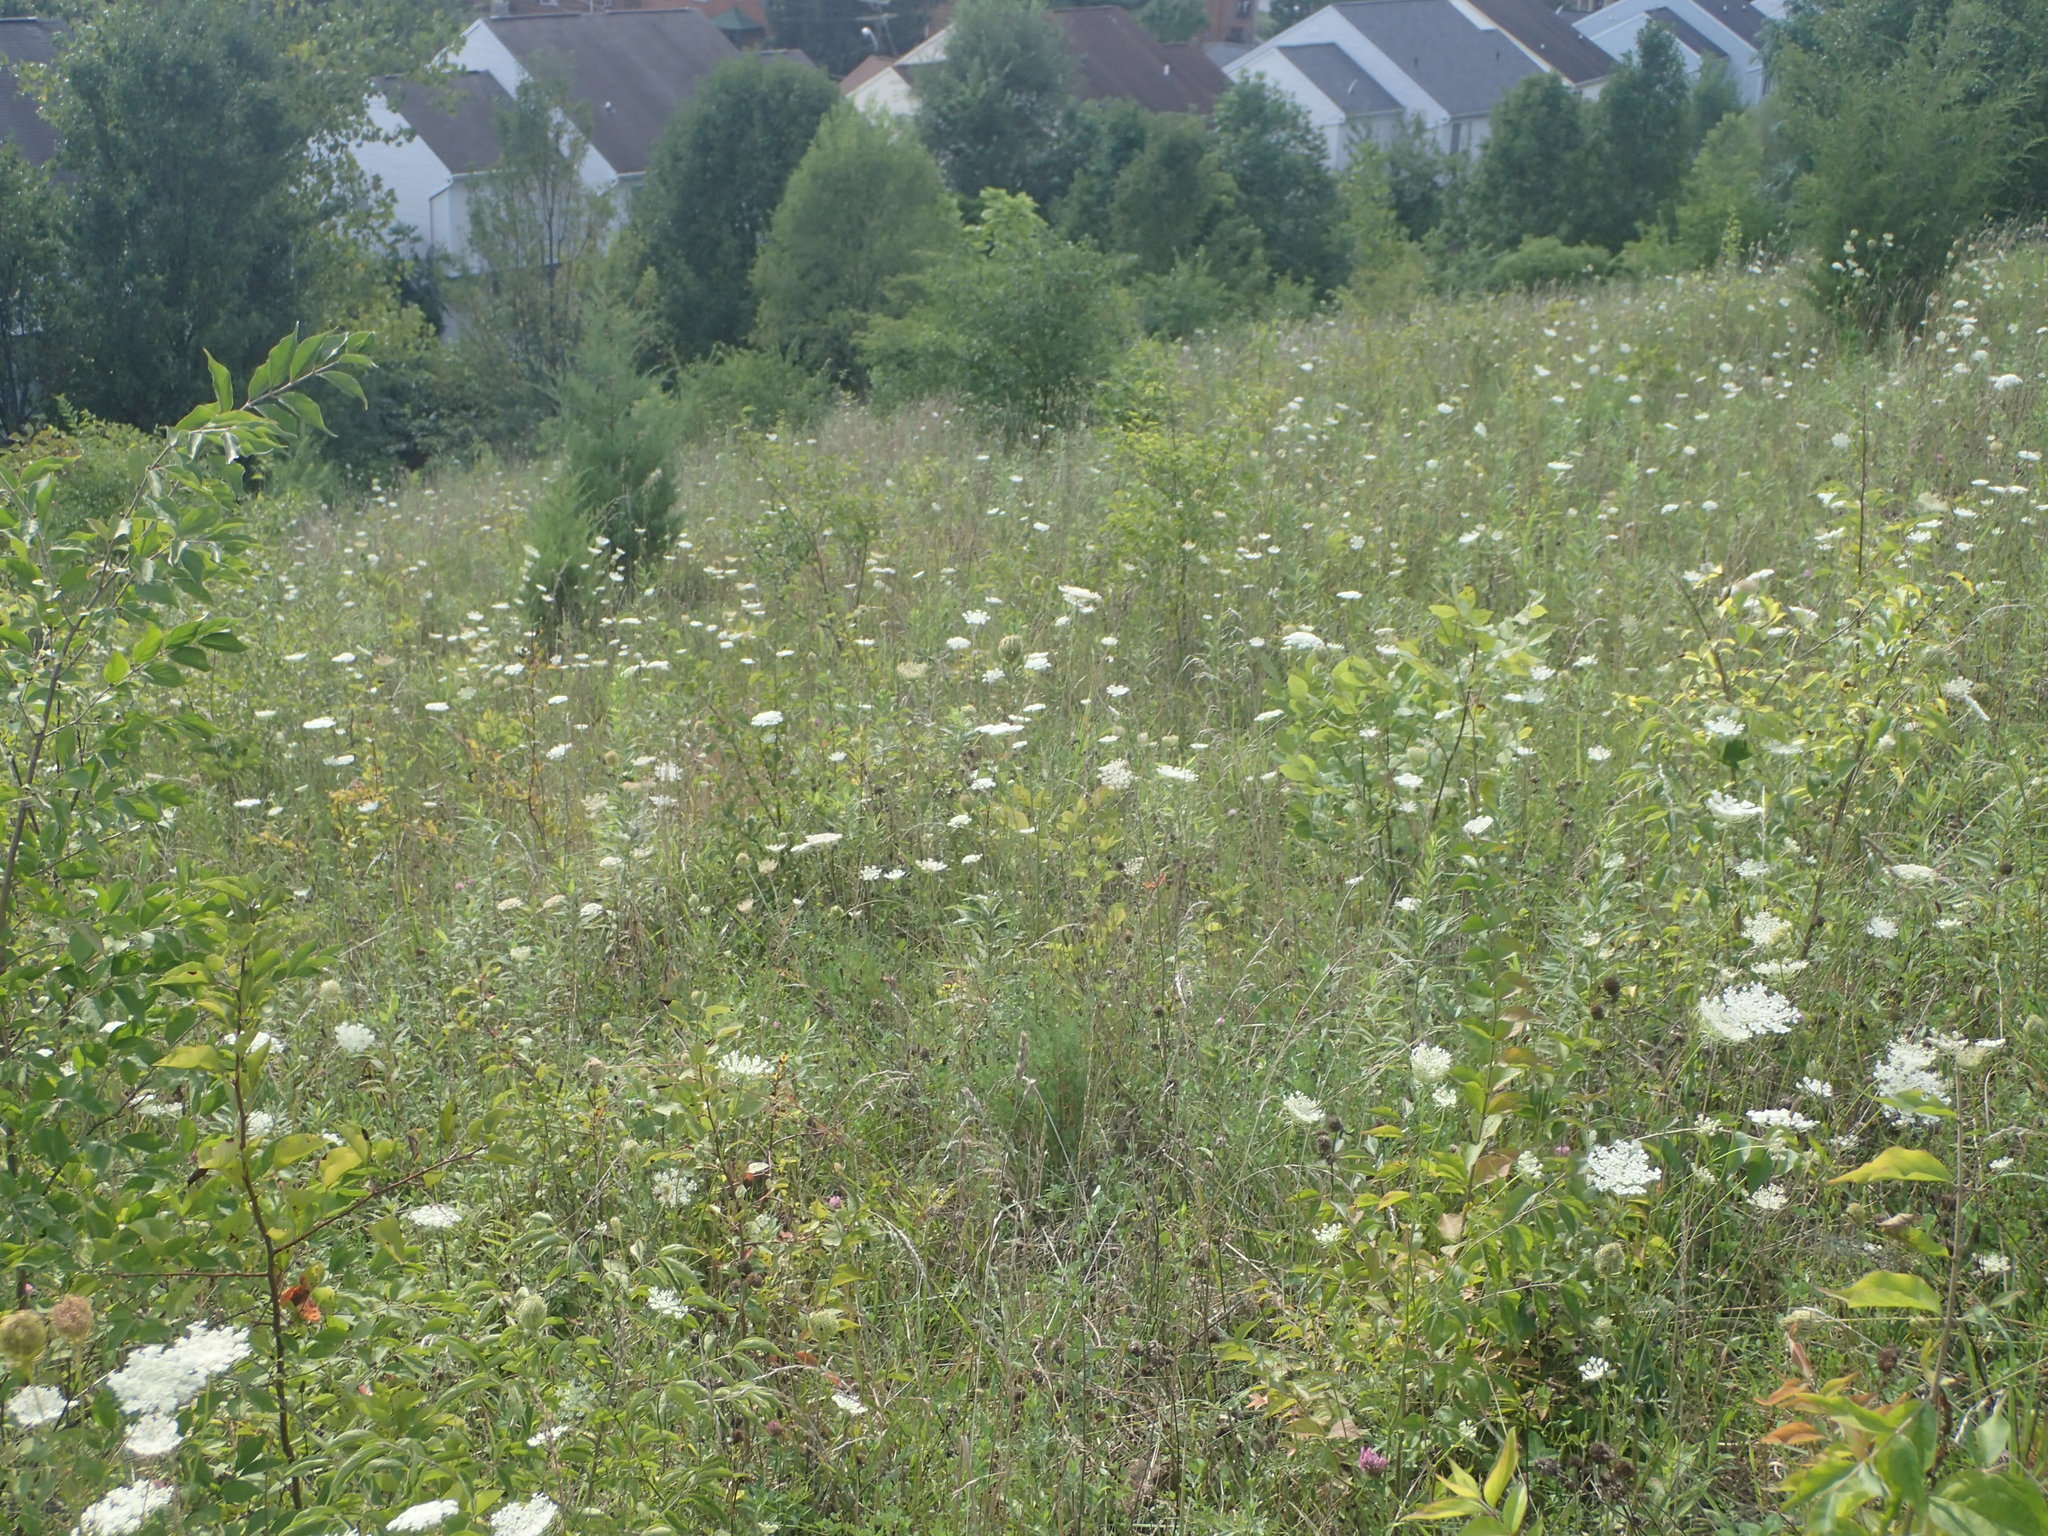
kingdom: Plantae
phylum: Tracheophyta
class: Magnoliopsida
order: Apiales
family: Apiaceae
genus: Daucus
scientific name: Daucus carota
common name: Wild carrot
